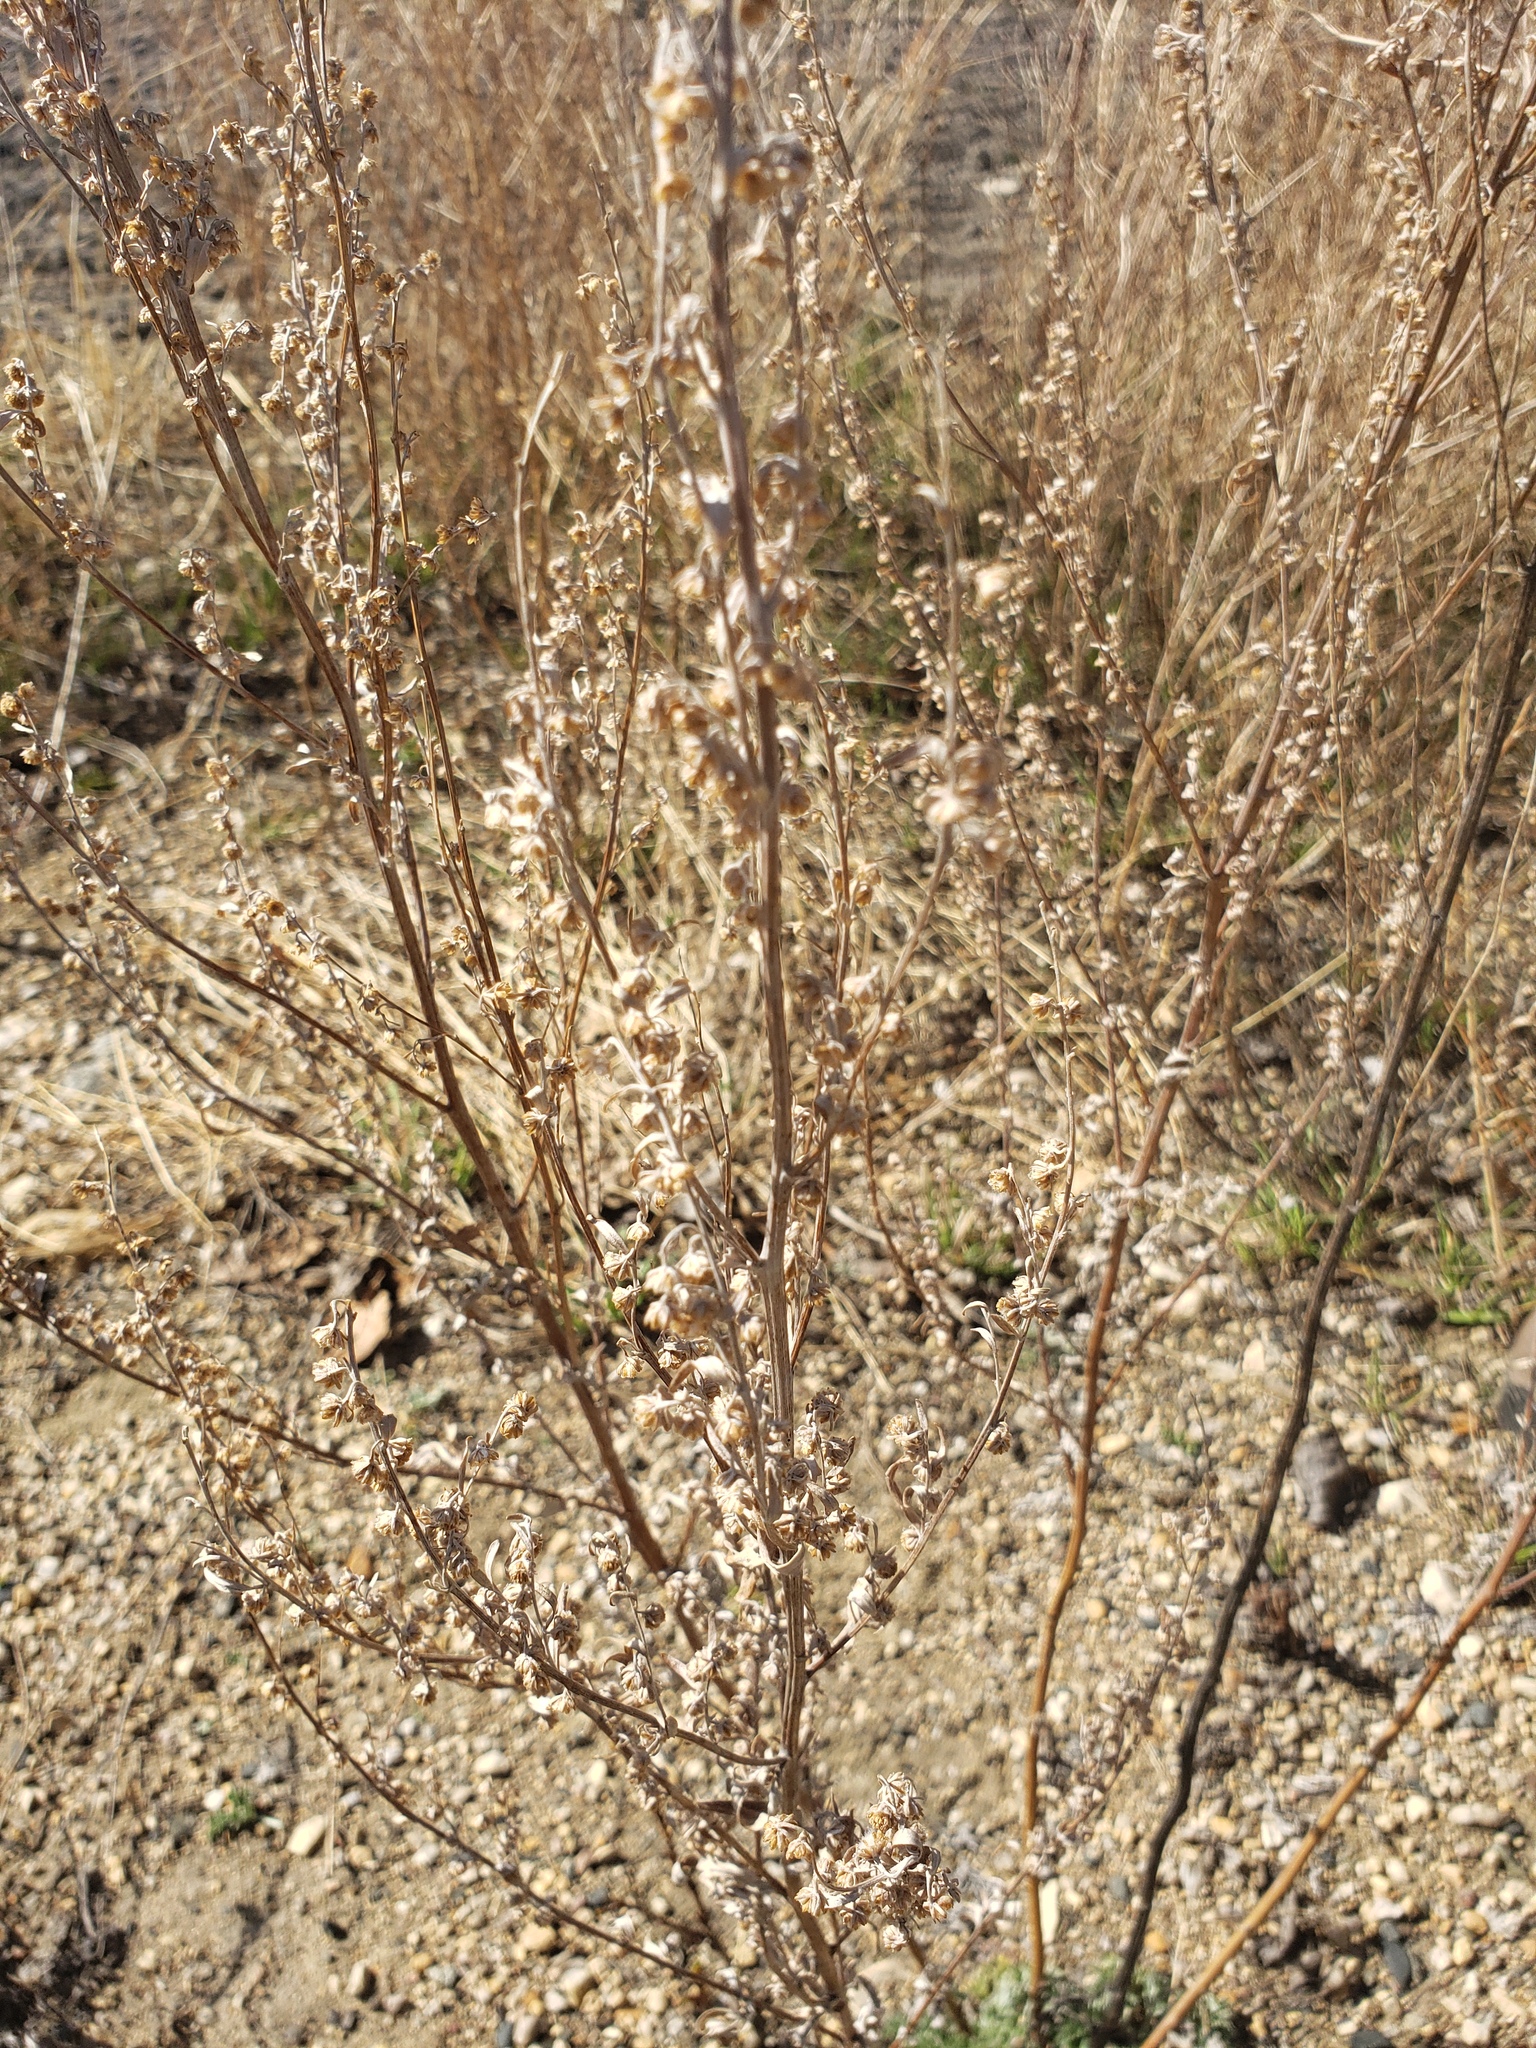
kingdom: Plantae
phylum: Tracheophyta
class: Magnoliopsida
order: Asterales
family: Asteraceae
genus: Artemisia
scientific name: Artemisia absinthium
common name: Wormwood
